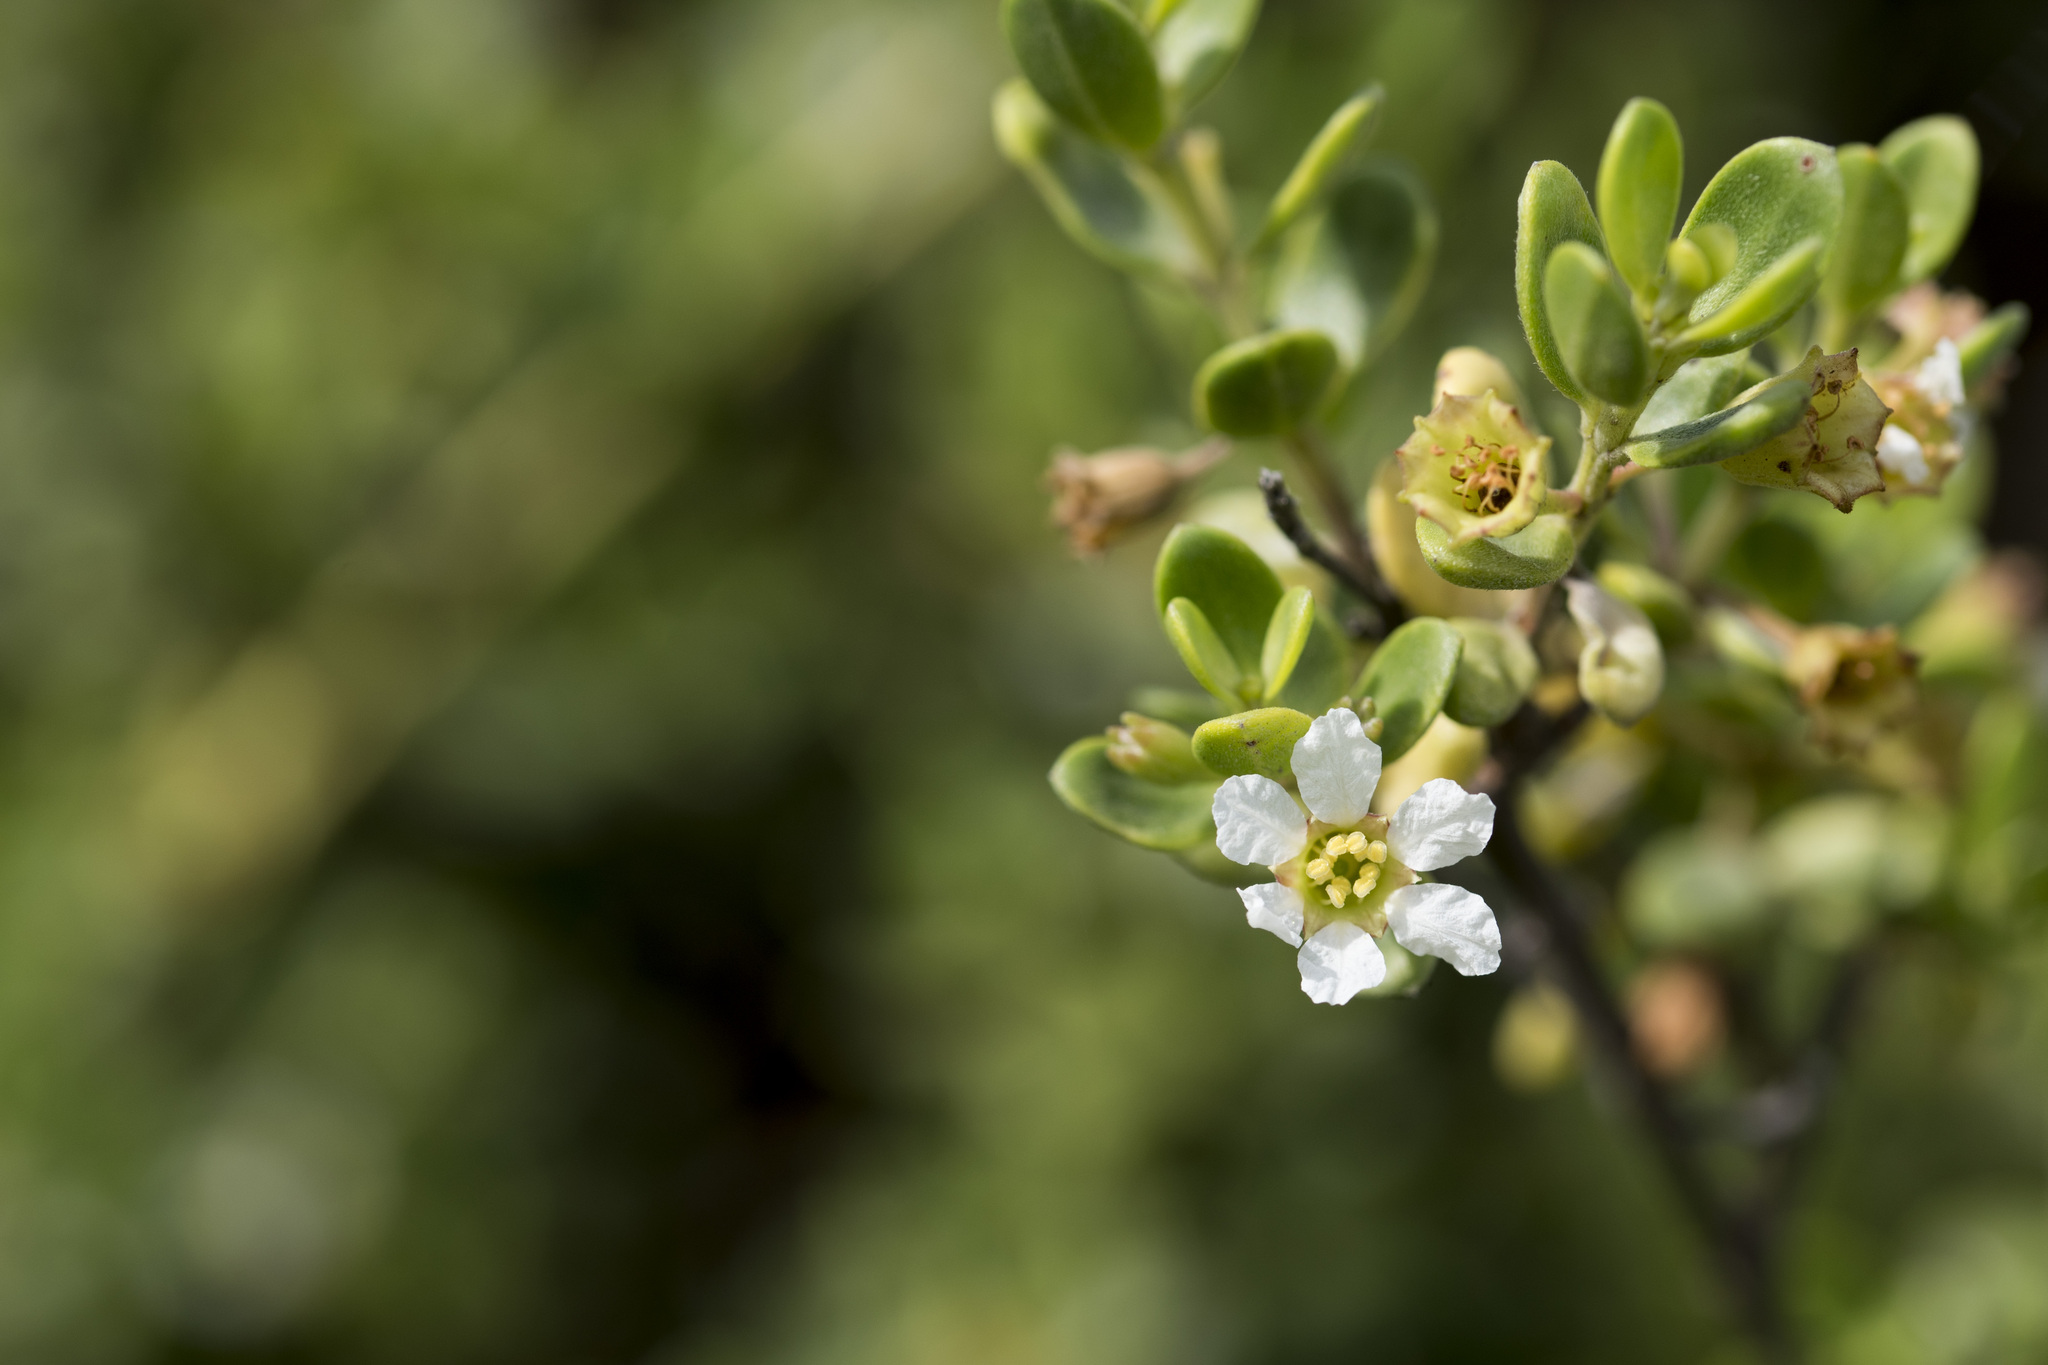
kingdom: Plantae
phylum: Tracheophyta
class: Magnoliopsida
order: Myrtales
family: Lythraceae
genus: Pemphis
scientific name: Pemphis acidula
